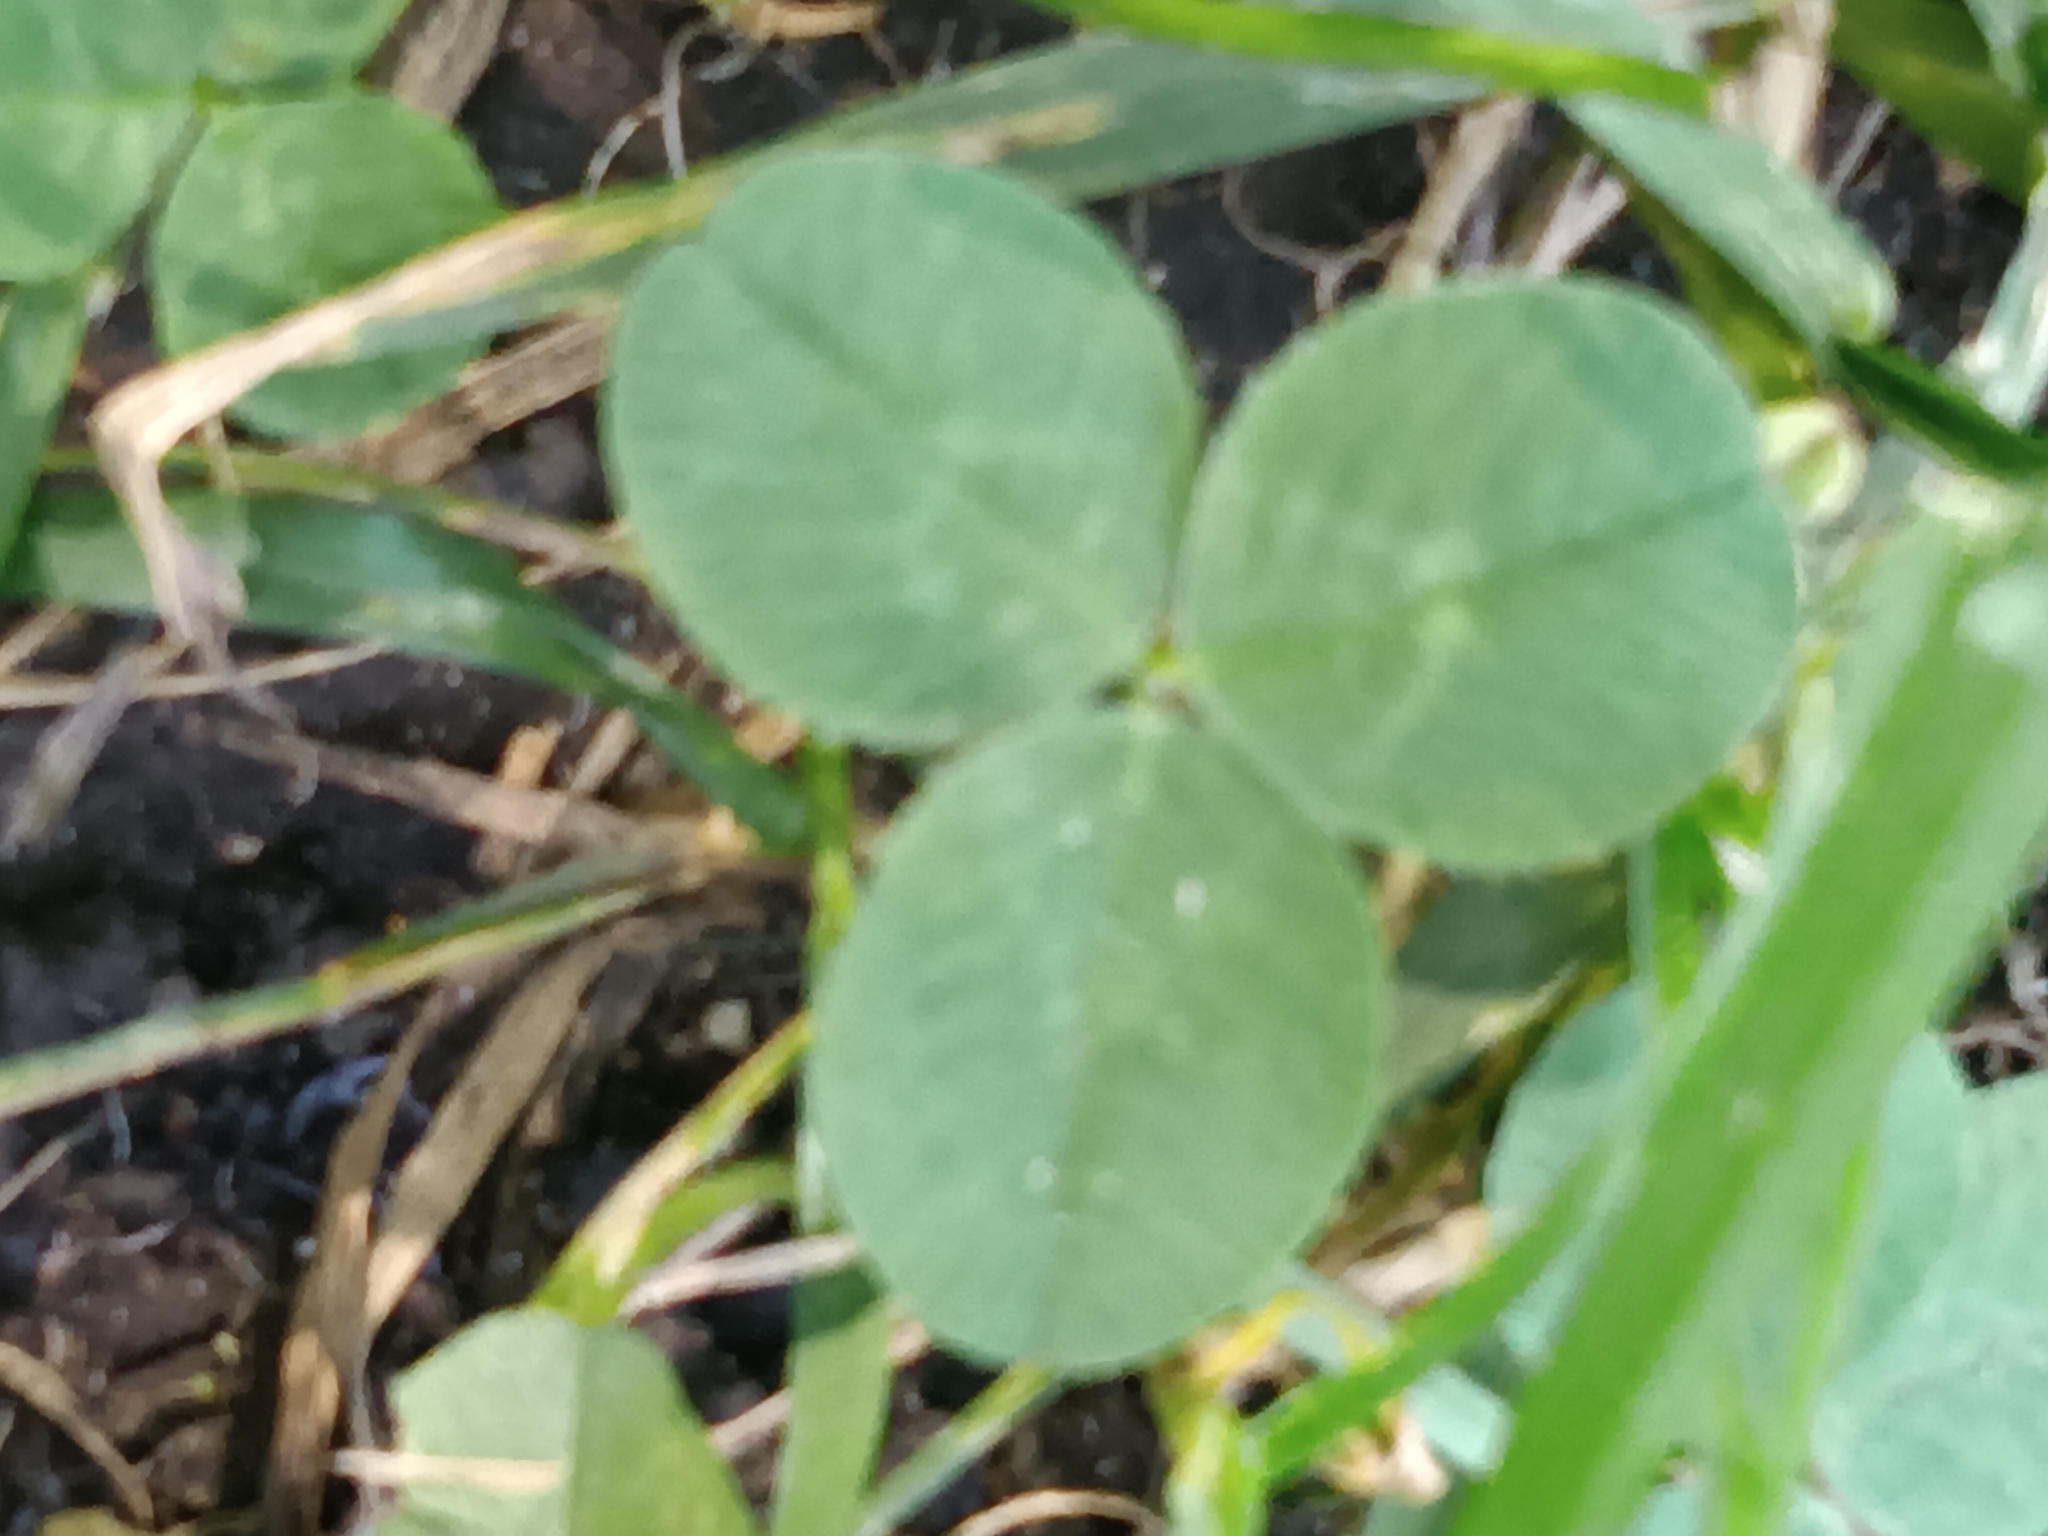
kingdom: Plantae
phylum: Tracheophyta
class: Magnoliopsida
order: Fabales
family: Fabaceae
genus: Trifolium
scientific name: Trifolium repens
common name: White clover
